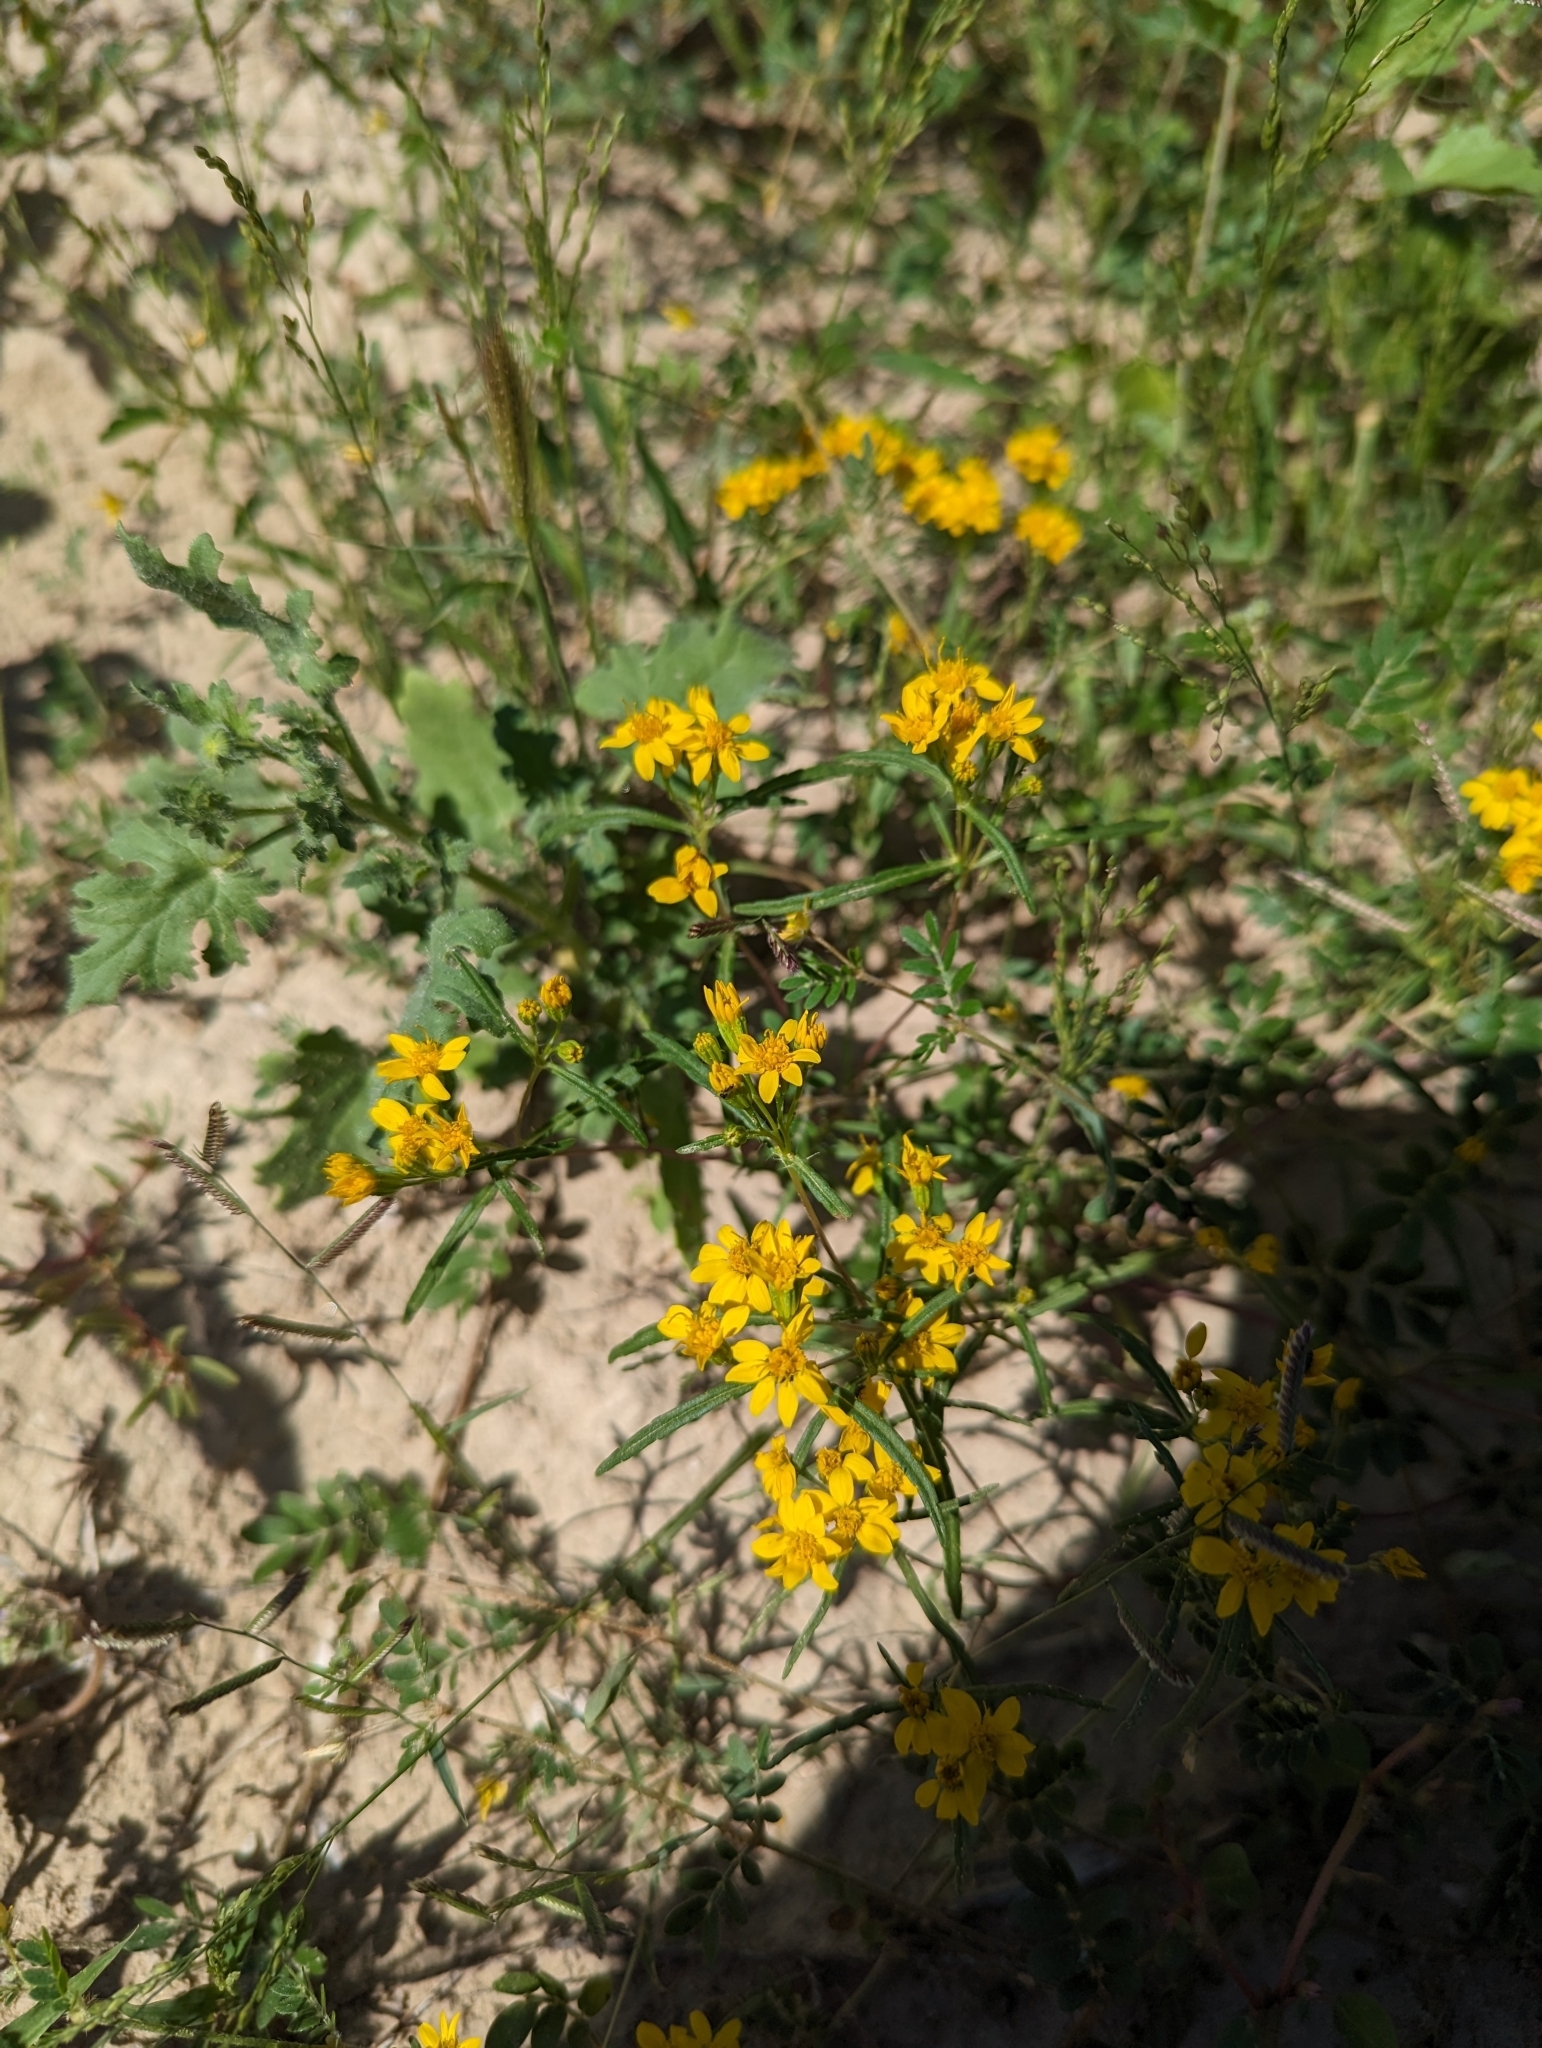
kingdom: Plantae
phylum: Tracheophyta
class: Magnoliopsida
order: Asterales
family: Asteraceae
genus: Pectis
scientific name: Pectis papposa
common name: Many-bristle chinchweed
